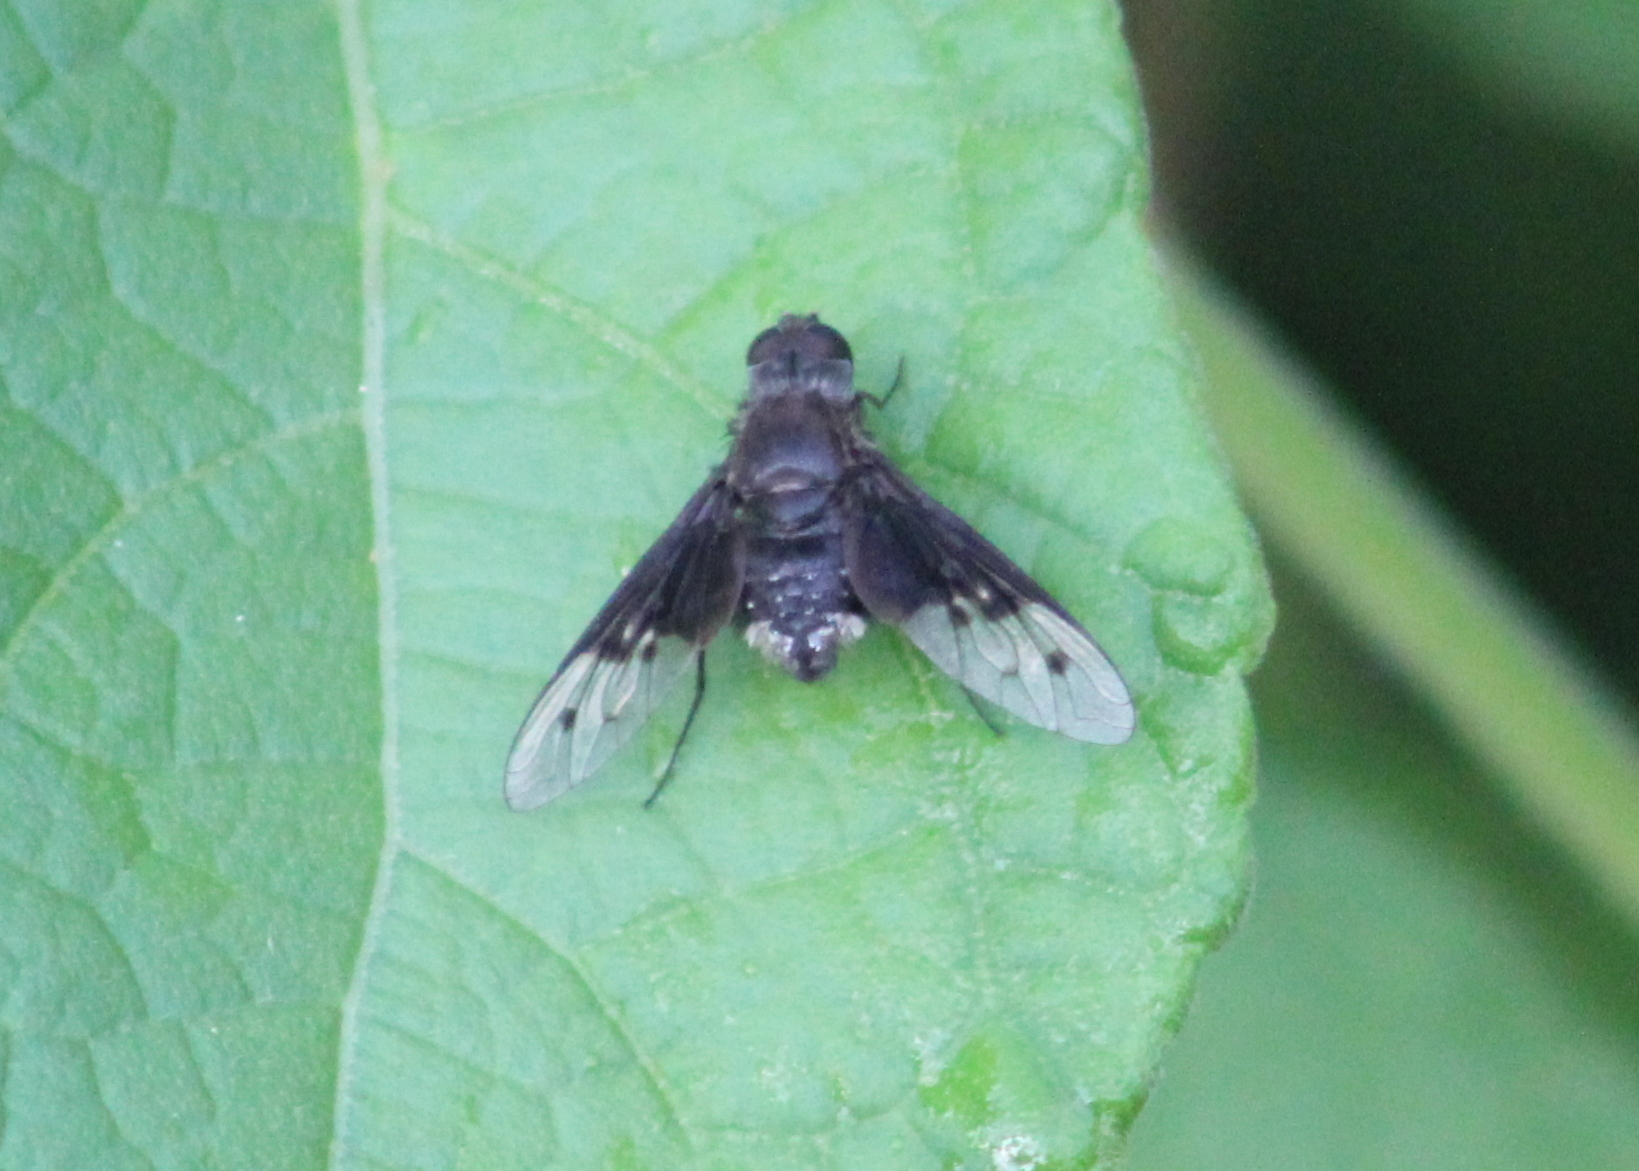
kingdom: Animalia
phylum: Arthropoda
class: Insecta
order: Diptera
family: Bombyliidae
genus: Anthrax
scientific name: Anthrax semiscitus
